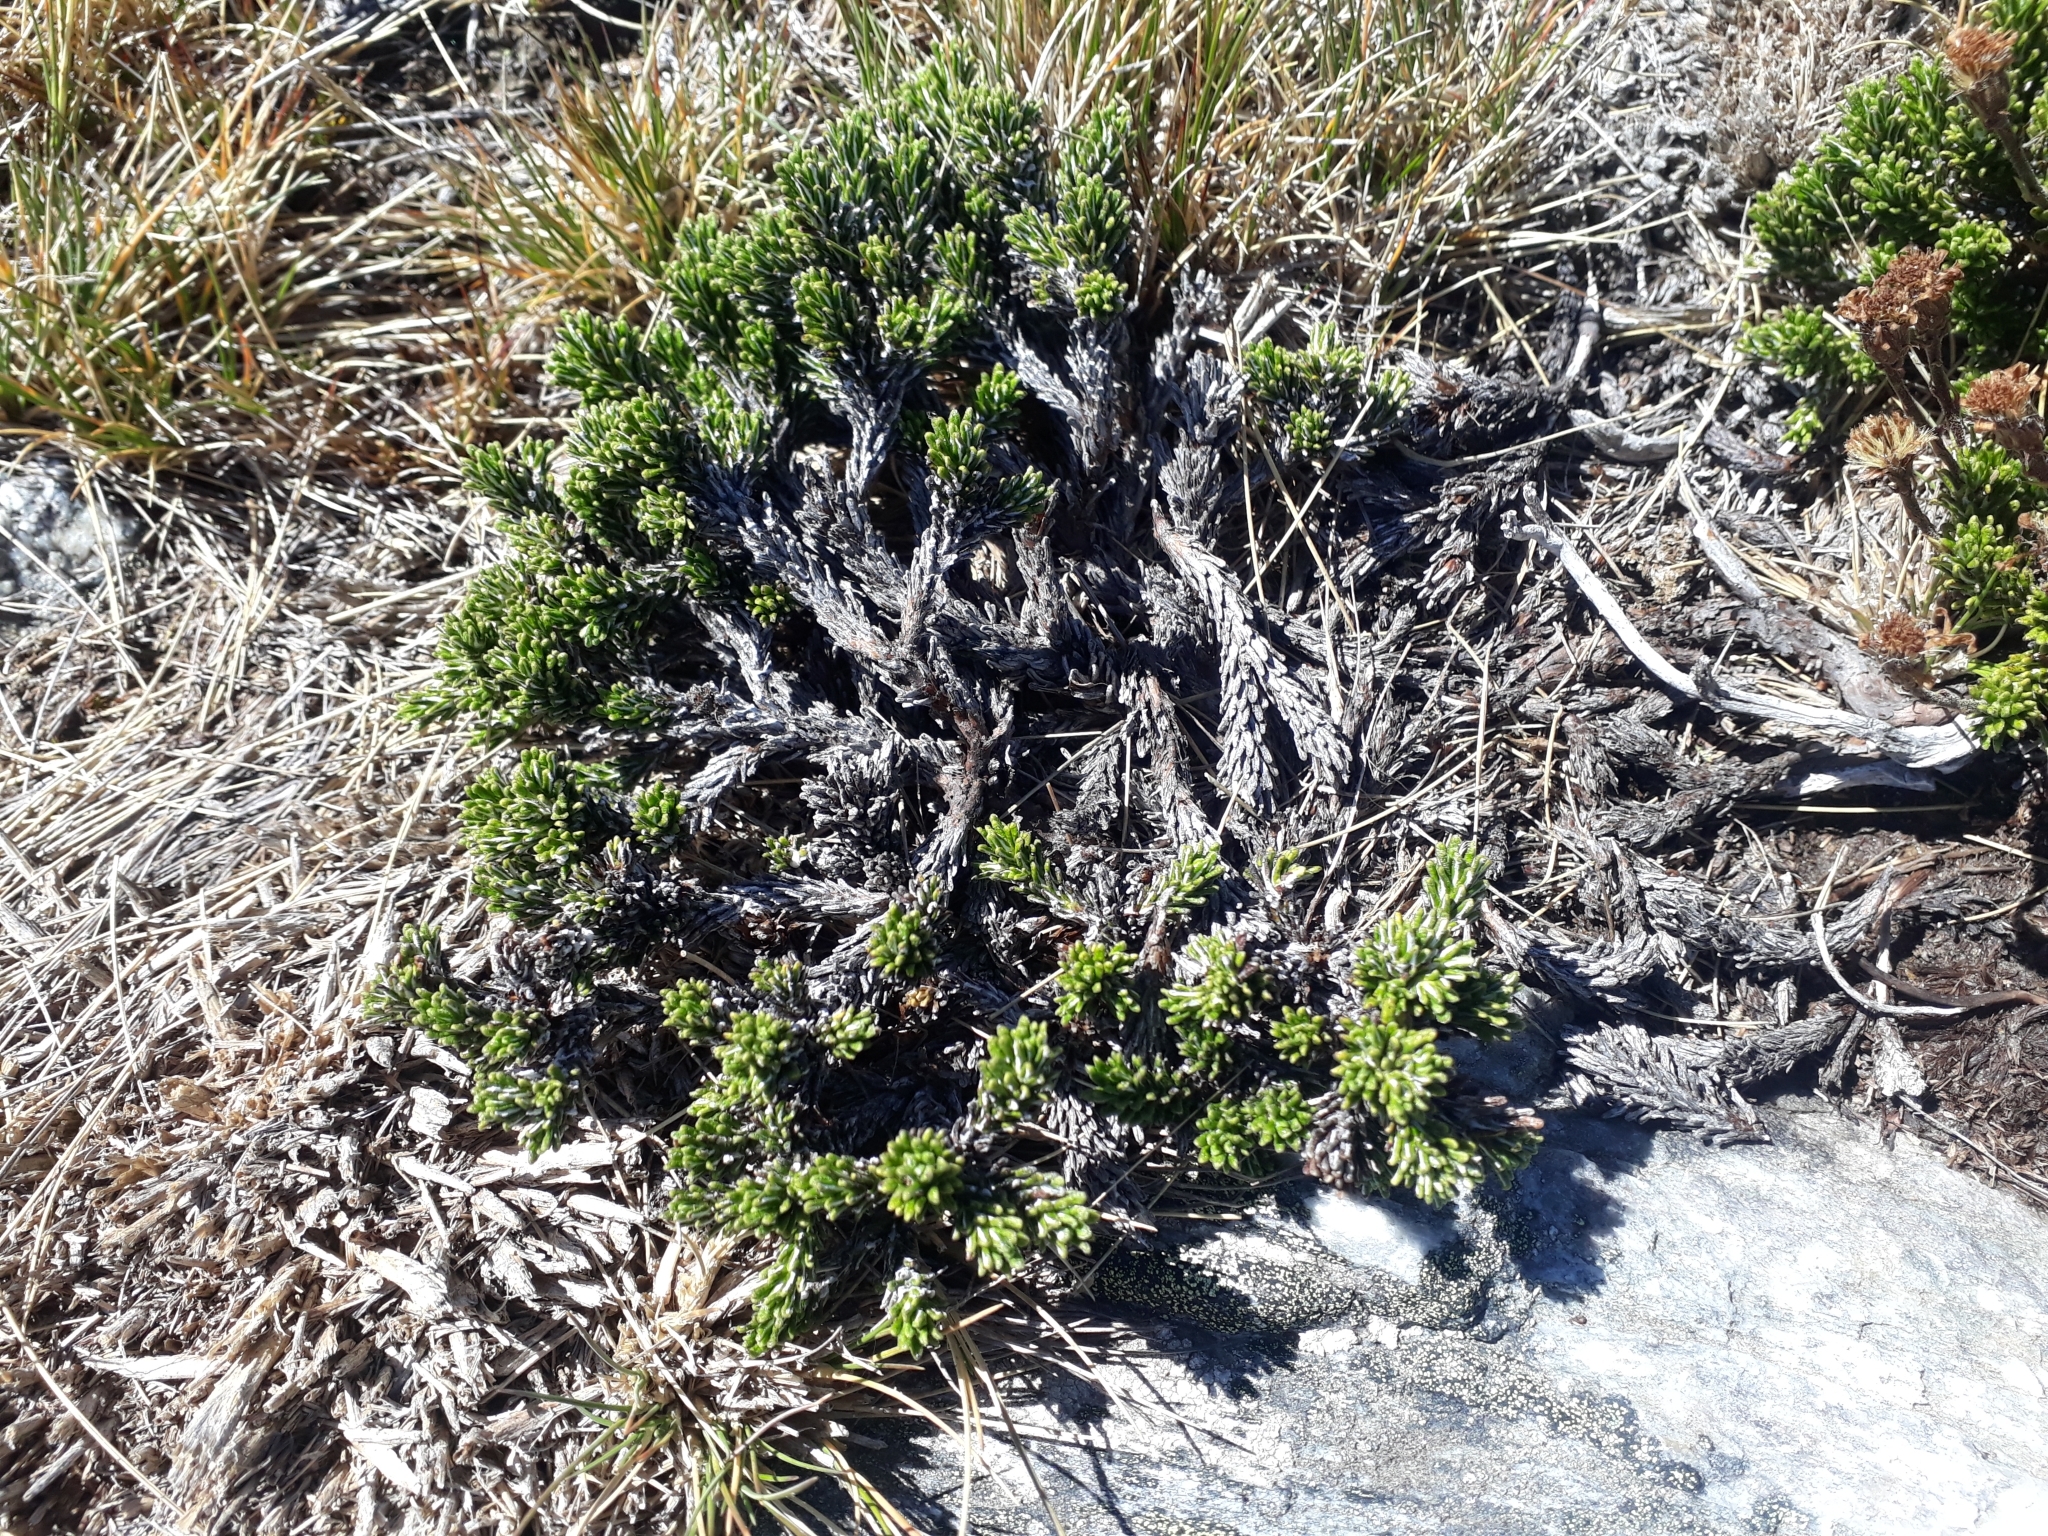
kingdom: Plantae
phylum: Tracheophyta
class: Magnoliopsida
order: Asterales
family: Asteraceae
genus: Celmisia
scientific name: Celmisia ramulosa
